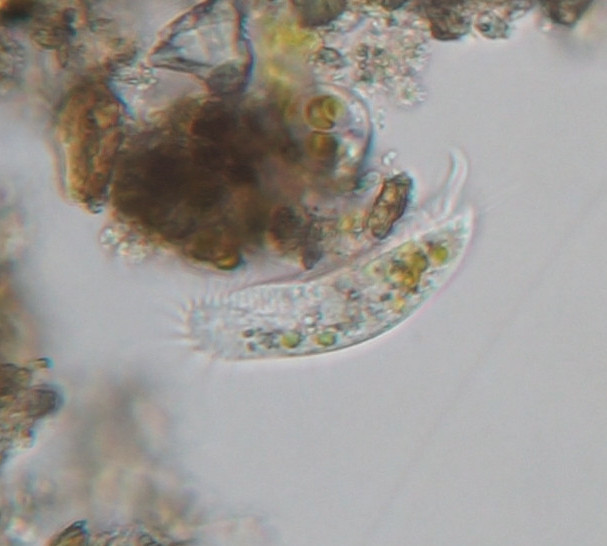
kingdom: Chromista
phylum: Ciliophora
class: Hypotrichea
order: Oxytrichida
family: Oxytrichidae
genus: Tachysoma
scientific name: Tachysoma pellionellum
